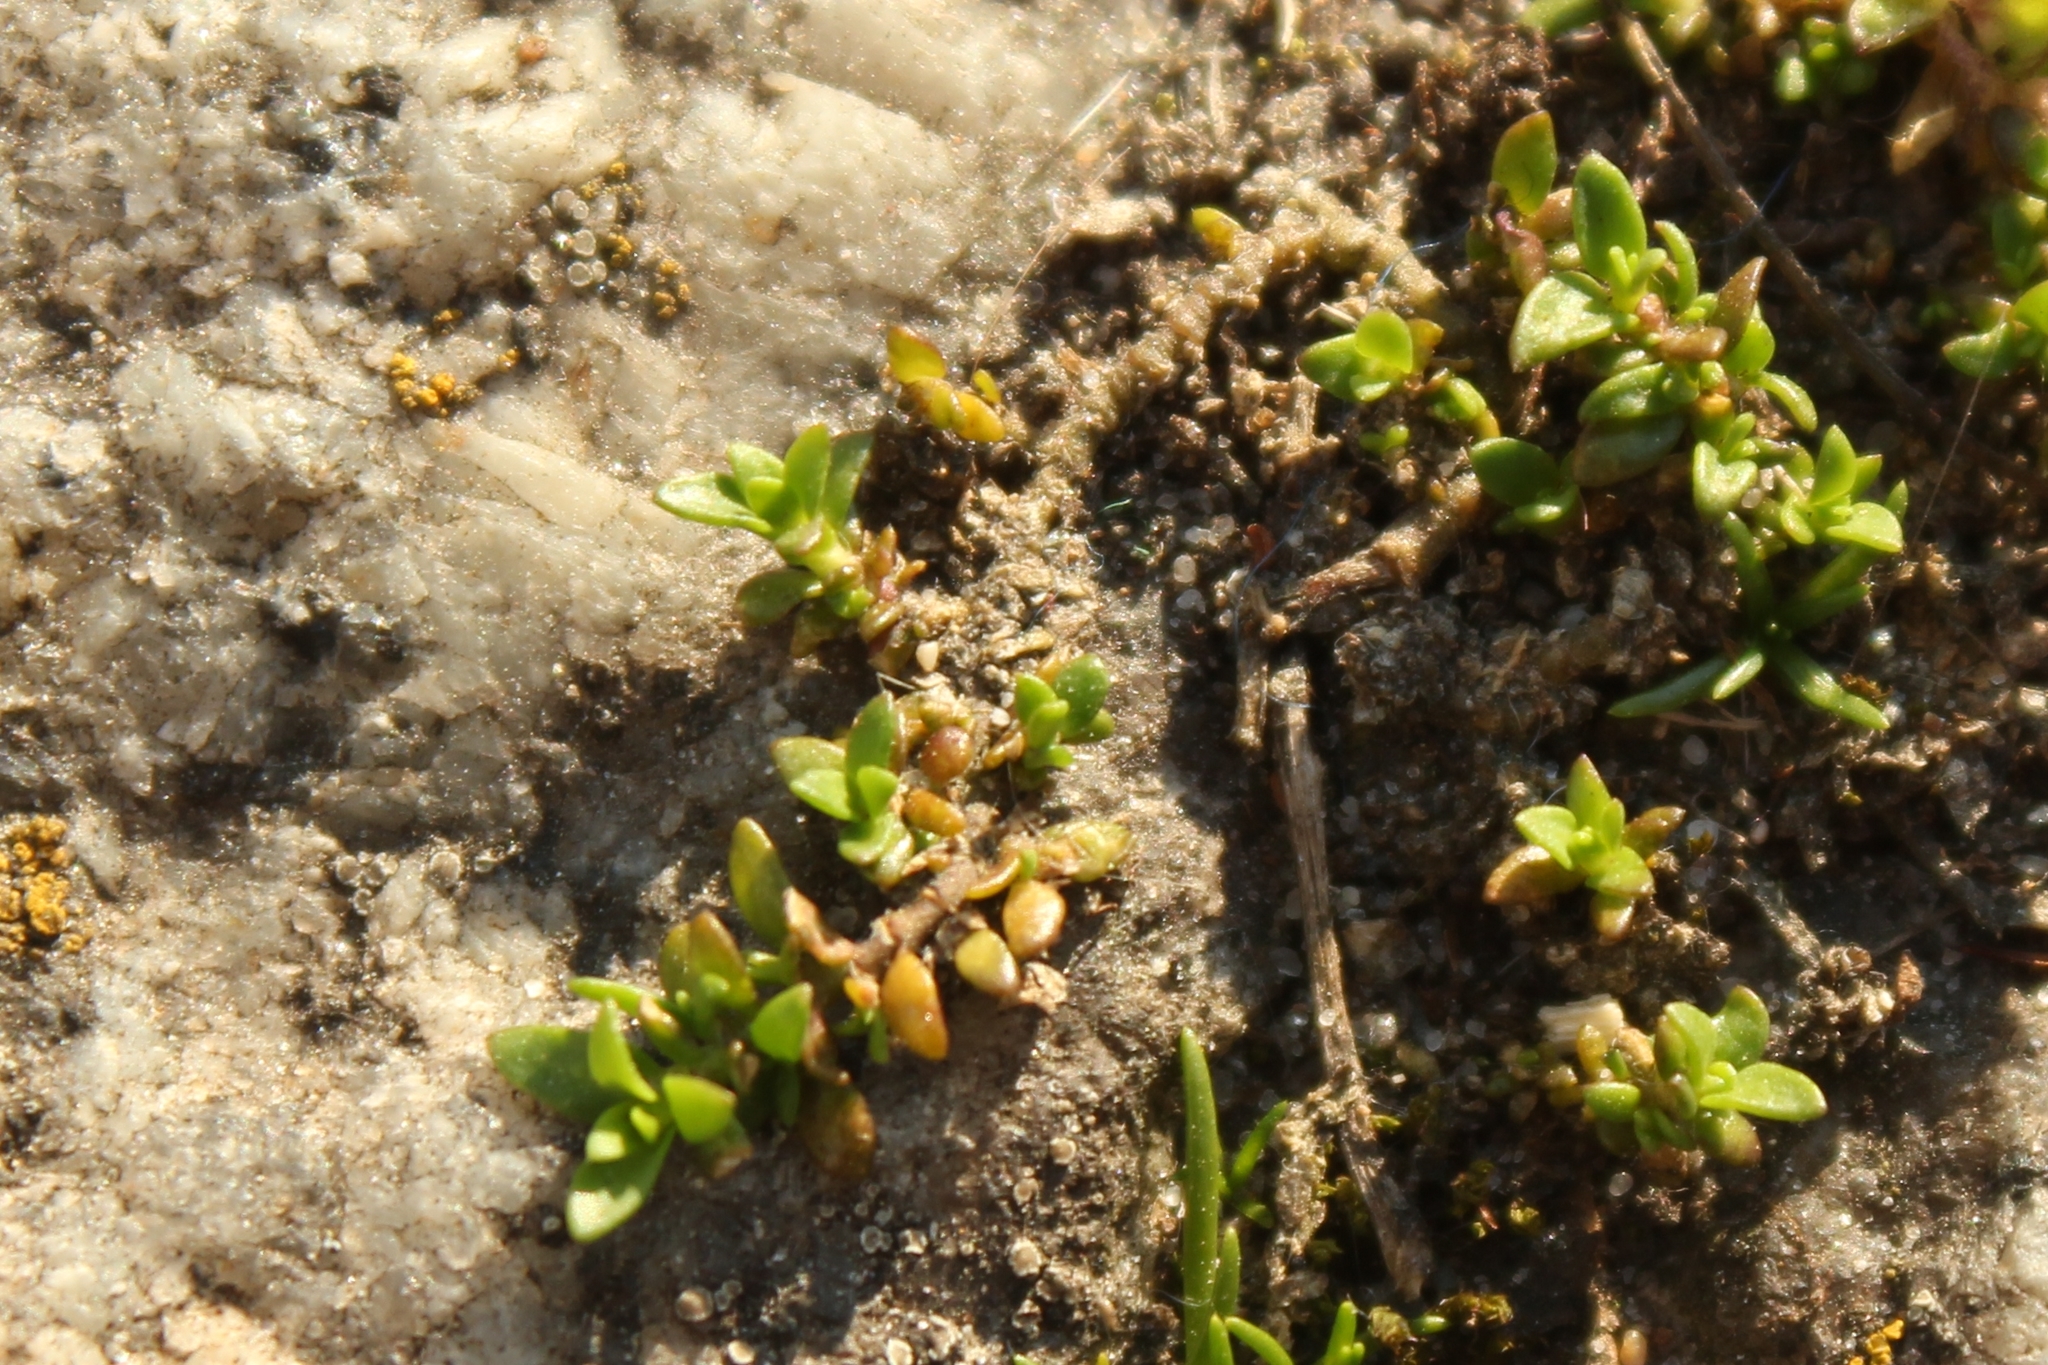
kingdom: Plantae
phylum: Tracheophyta
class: Magnoliopsida
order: Caryophyllales
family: Caryophyllaceae
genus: Herniaria
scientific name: Herniaria glabra
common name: Smooth rupturewort
